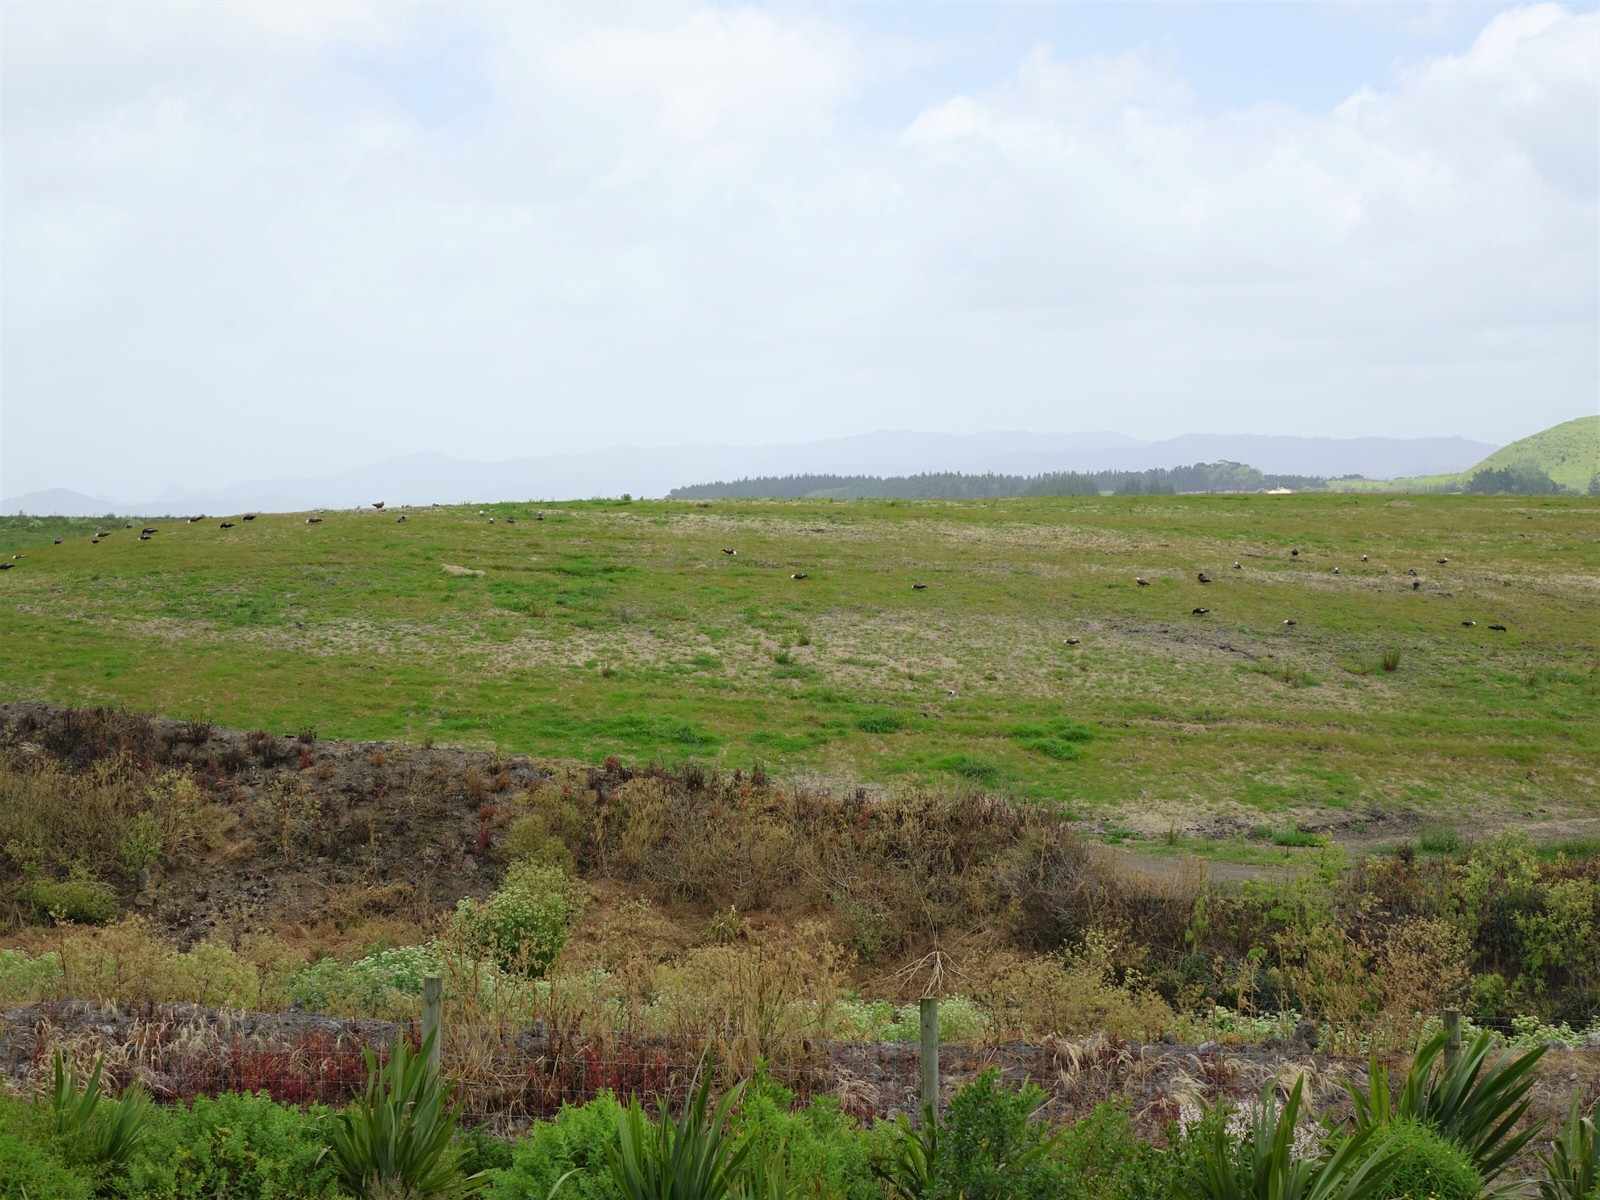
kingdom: Animalia
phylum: Chordata
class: Aves
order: Anseriformes
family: Anatidae
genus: Tadorna
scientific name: Tadorna variegata
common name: Paradise shelduck
